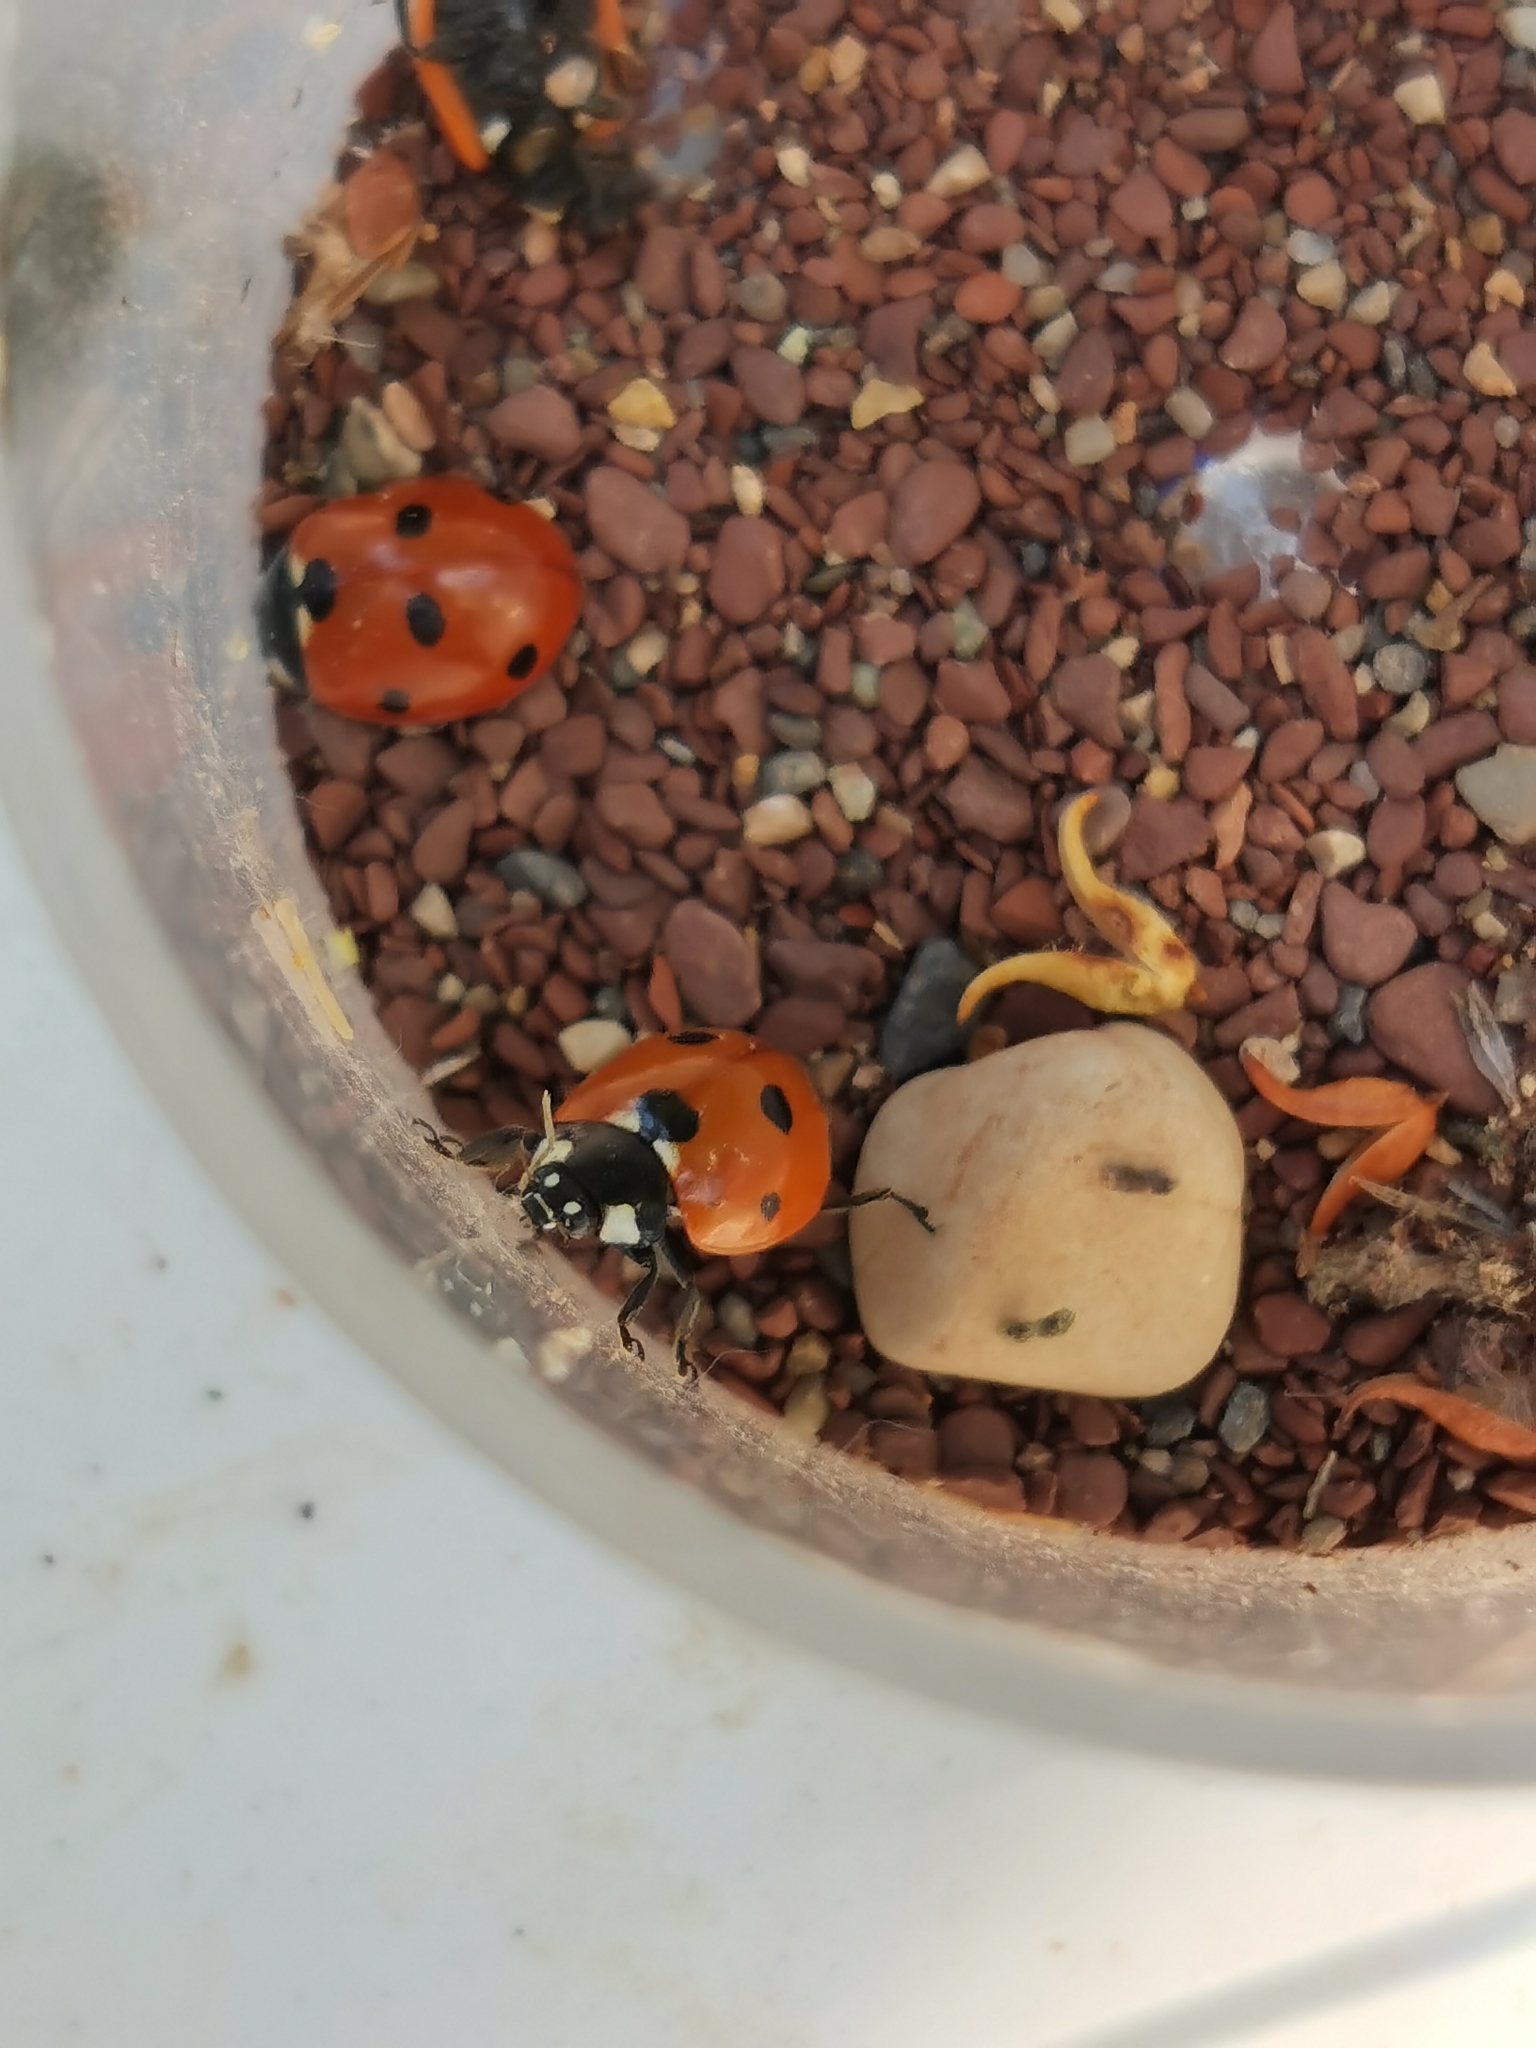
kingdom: Animalia
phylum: Arthropoda
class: Insecta
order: Coleoptera
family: Coccinellidae
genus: Coccinella
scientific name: Coccinella septempunctata
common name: Sevenspotted lady beetle
